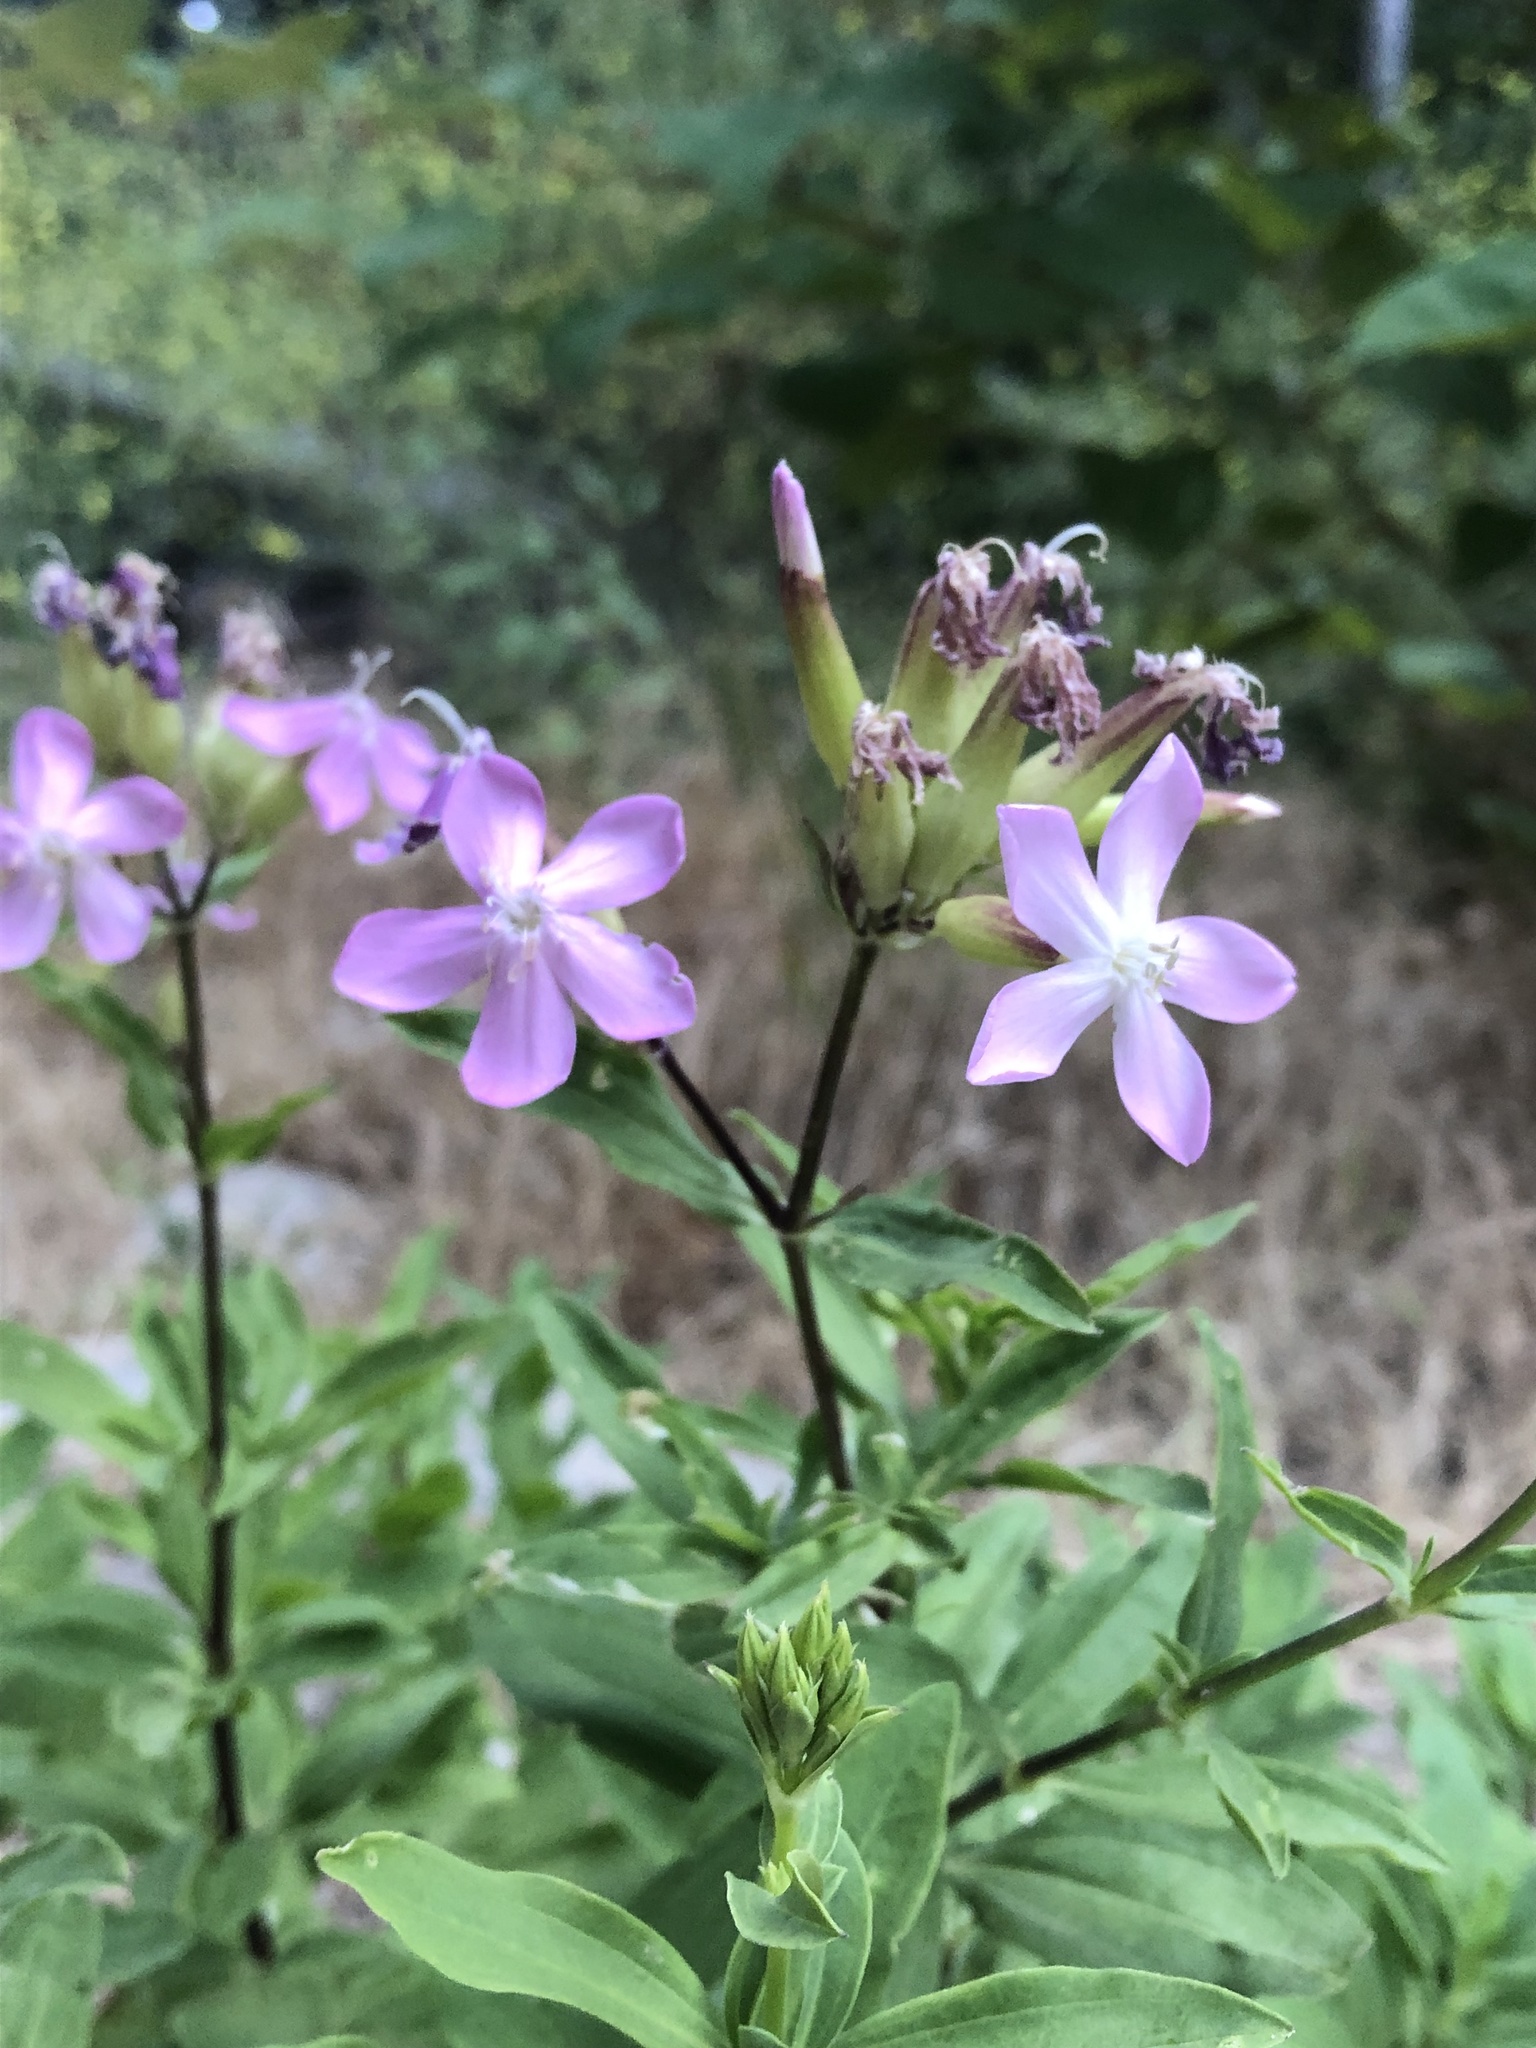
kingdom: Plantae
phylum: Tracheophyta
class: Magnoliopsida
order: Caryophyllales
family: Caryophyllaceae
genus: Saponaria
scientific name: Saponaria officinalis
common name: Soapwort
